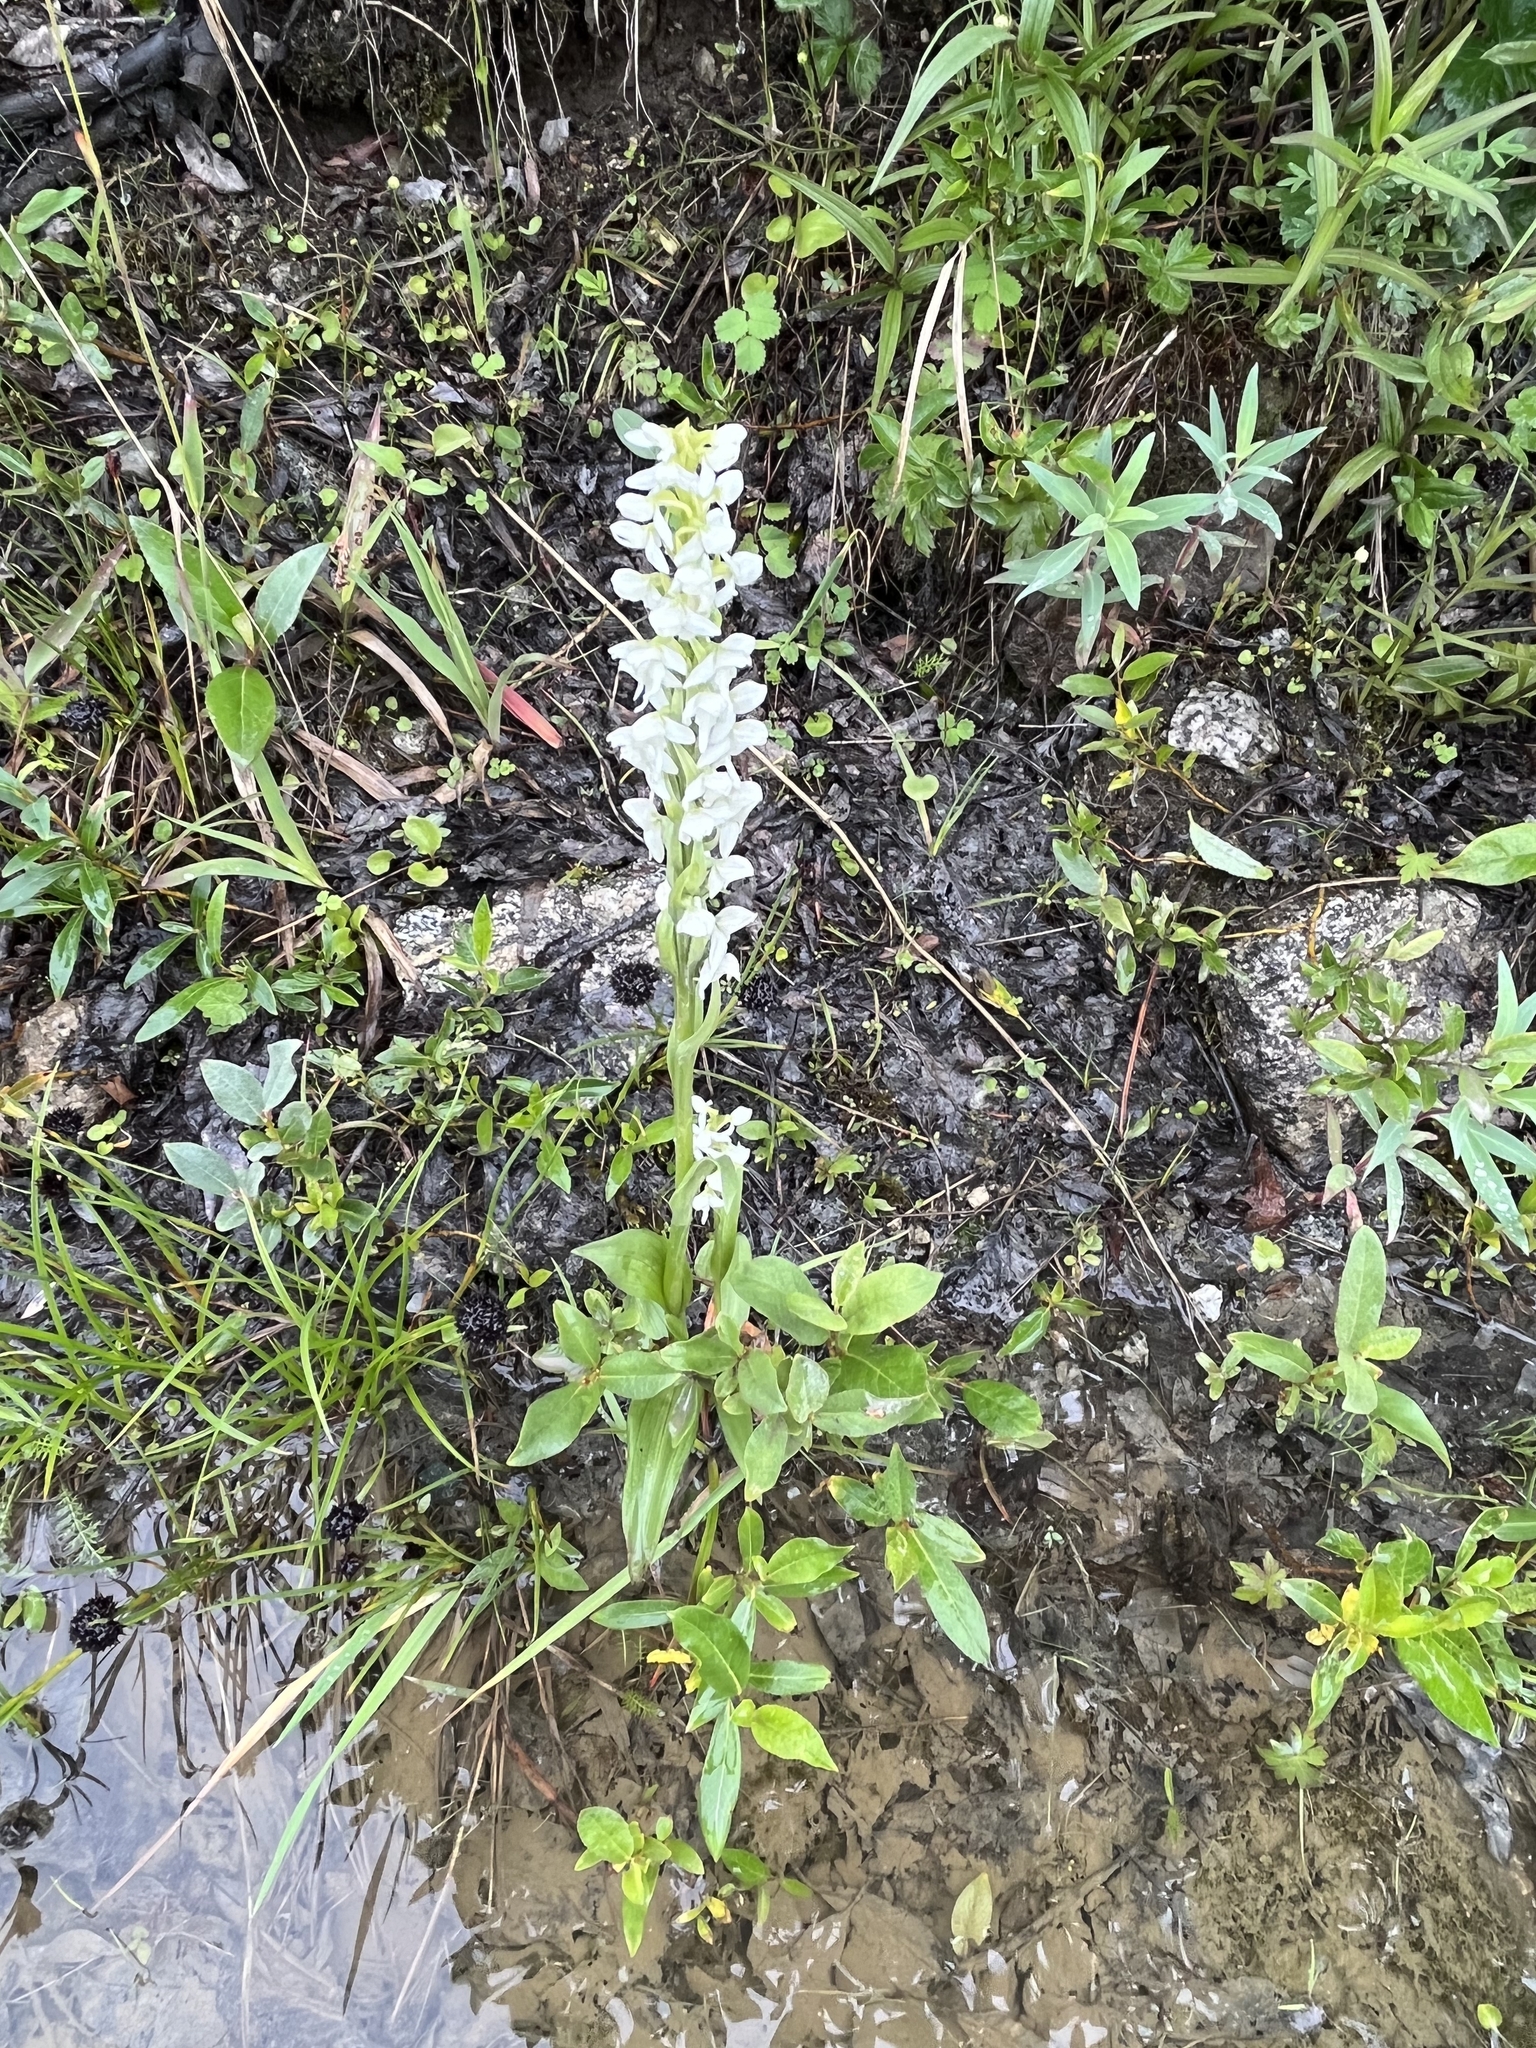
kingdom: Plantae
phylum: Tracheophyta
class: Liliopsida
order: Asparagales
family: Orchidaceae
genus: Platanthera
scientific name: Platanthera dilatata
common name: Bog candles
